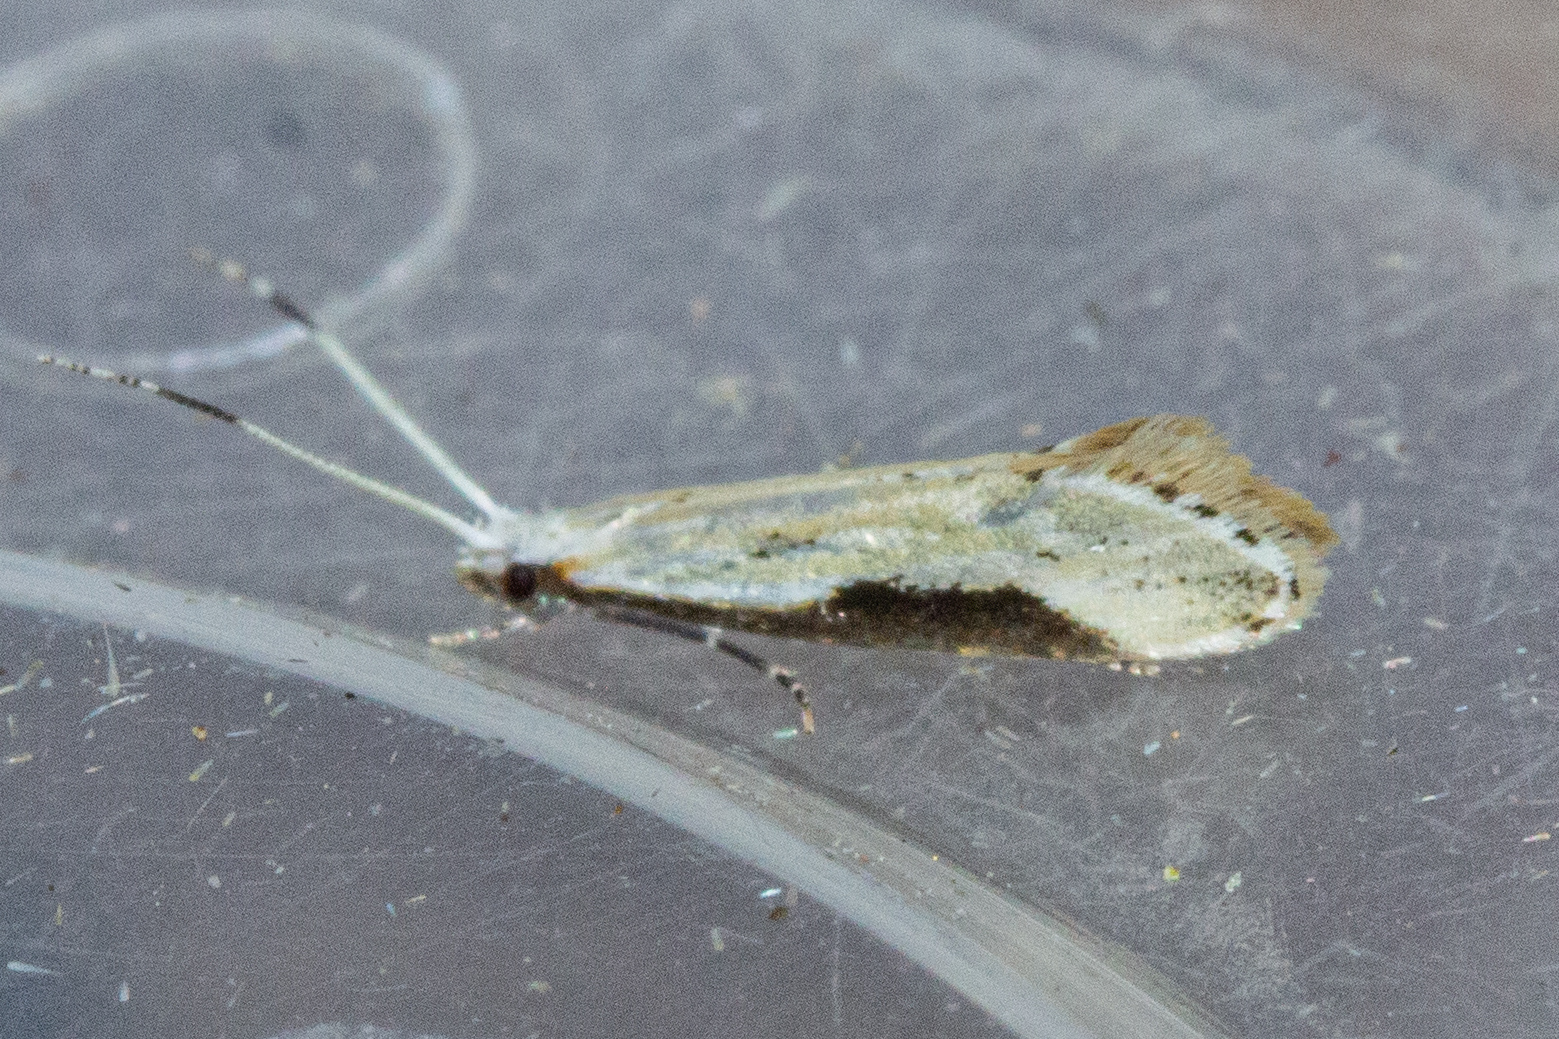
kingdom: Animalia
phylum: Arthropoda
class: Insecta
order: Lepidoptera
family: Tineidae
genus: Sagephora
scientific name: Sagephora phortegella
